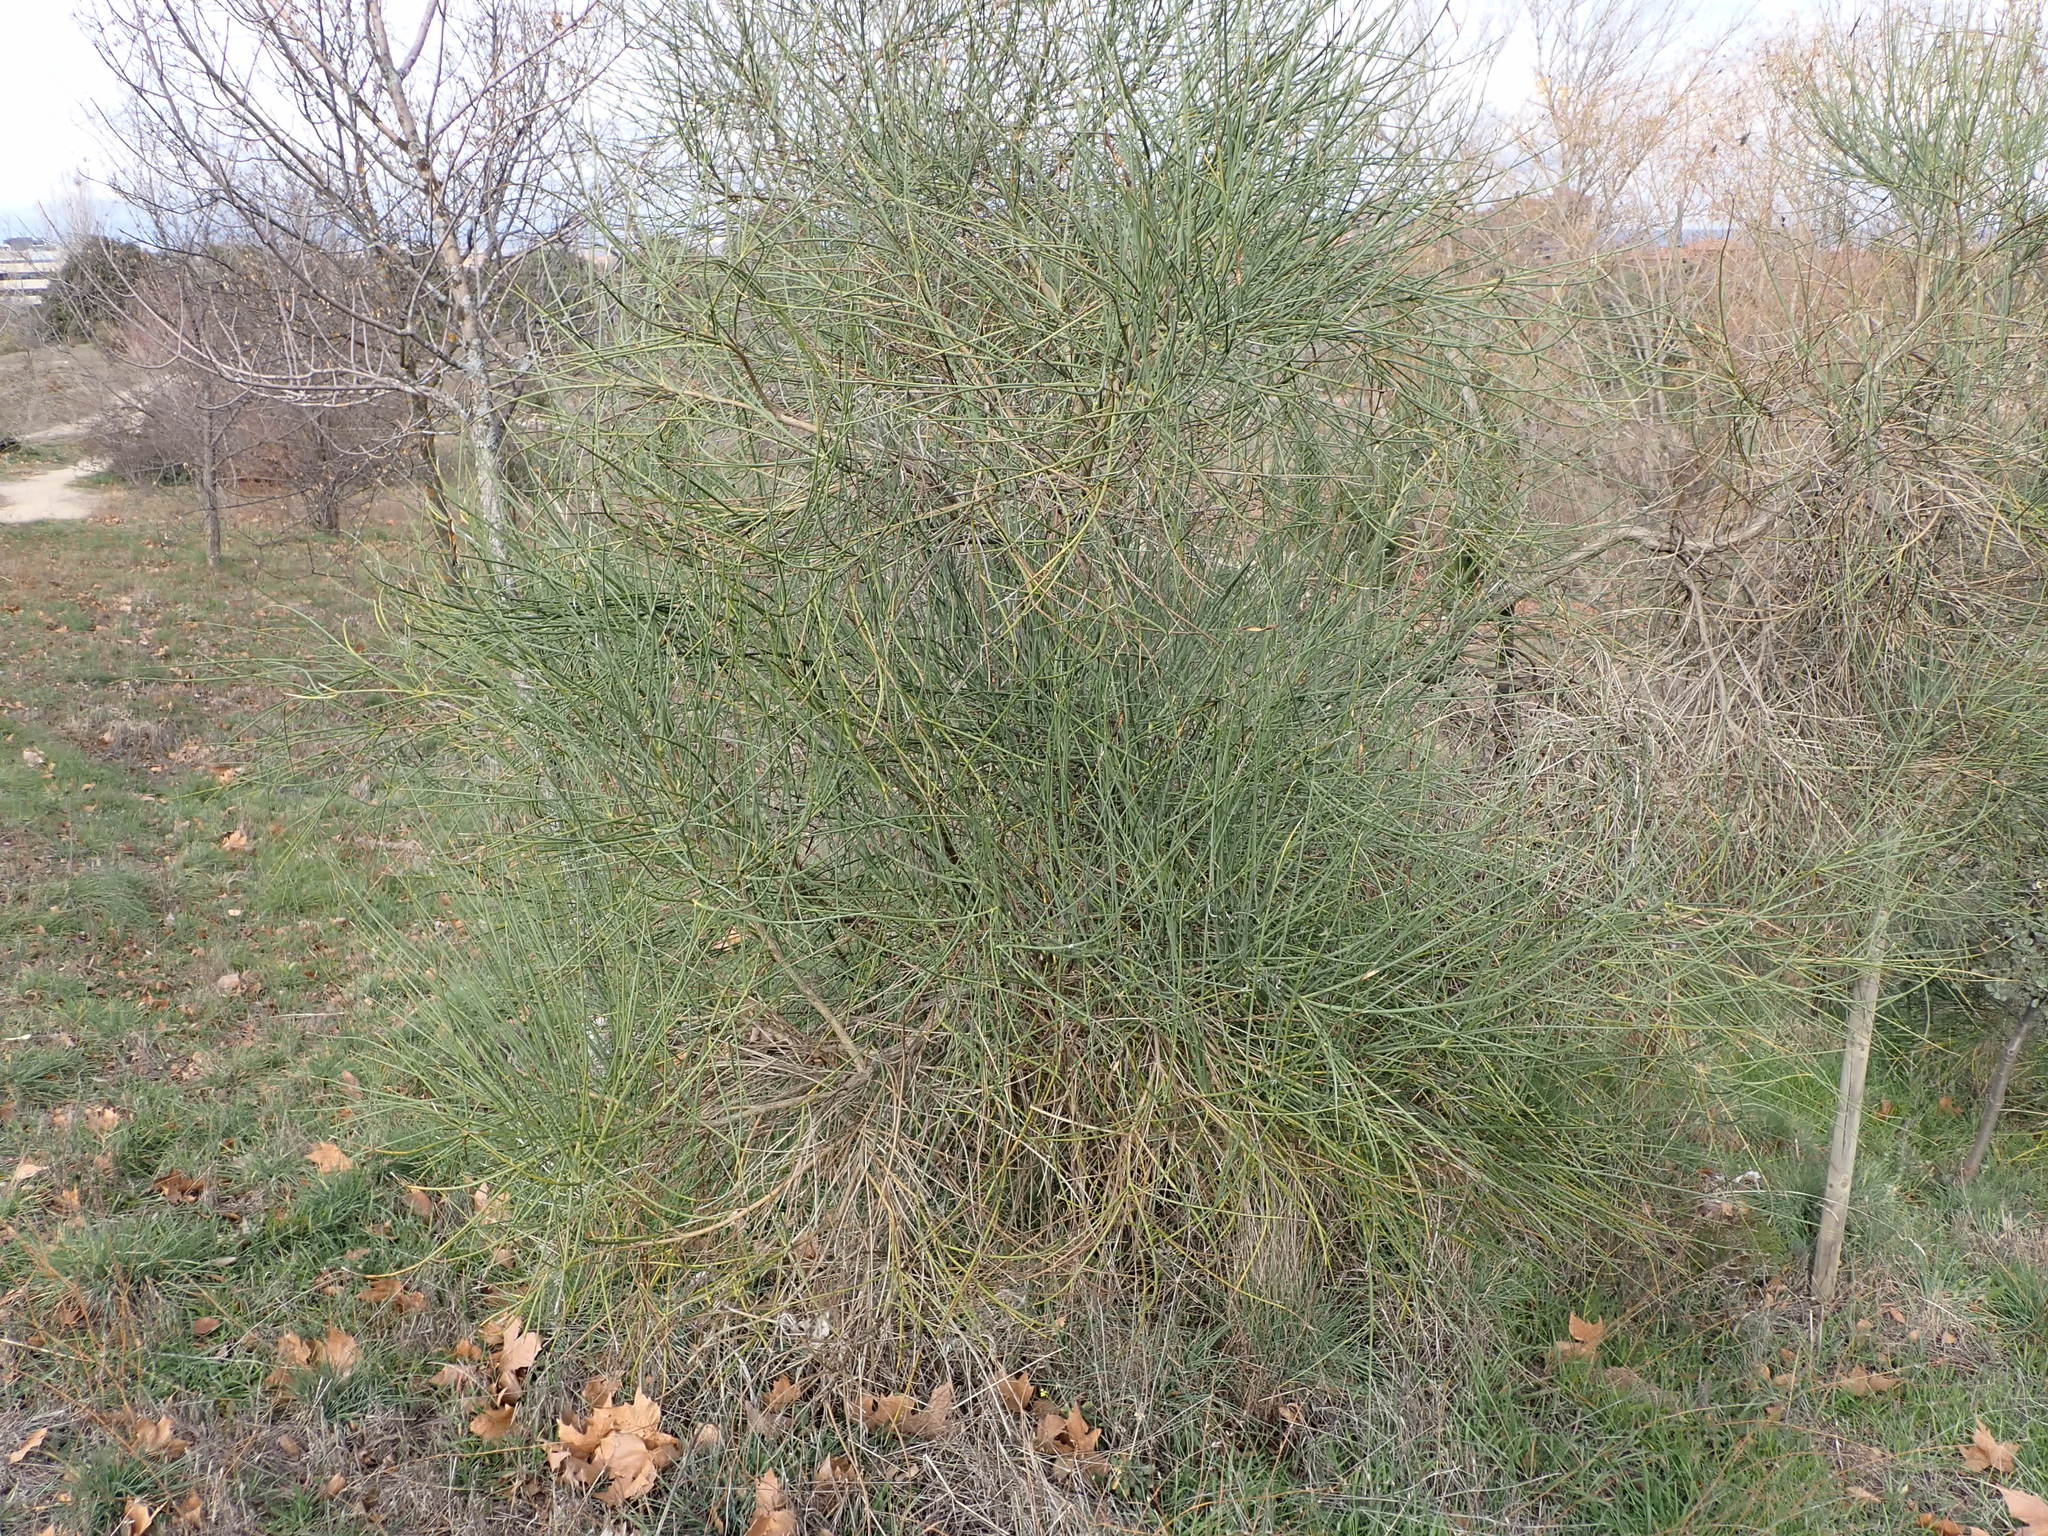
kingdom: Plantae
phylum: Tracheophyta
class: Magnoliopsida
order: Fabales
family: Fabaceae
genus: Spartium
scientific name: Spartium junceum
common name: Spanish broom
